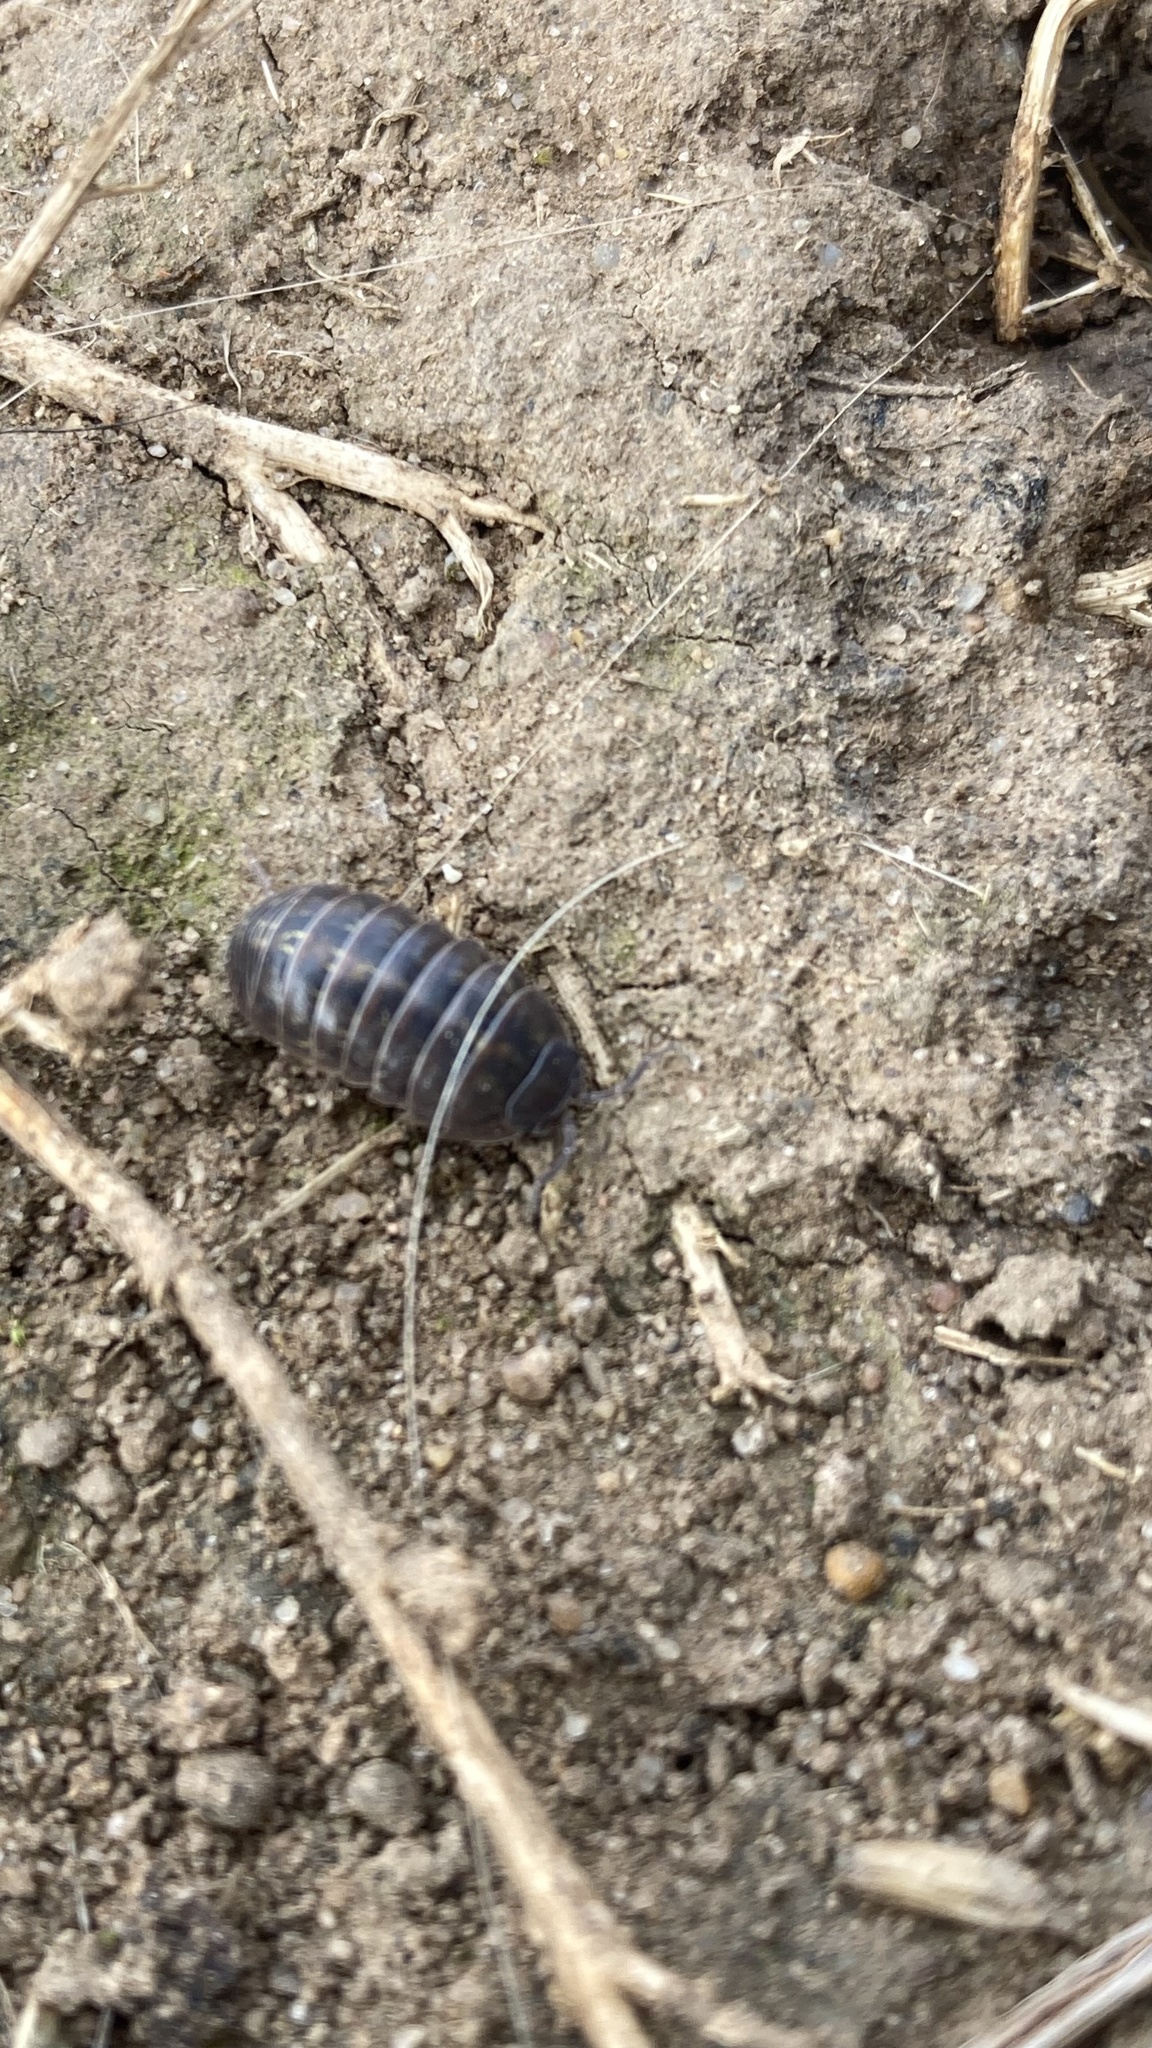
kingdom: Animalia
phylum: Arthropoda
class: Malacostraca
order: Isopoda
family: Armadillidiidae
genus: Armadillidium
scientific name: Armadillidium vulgare
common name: Common pill woodlouse
